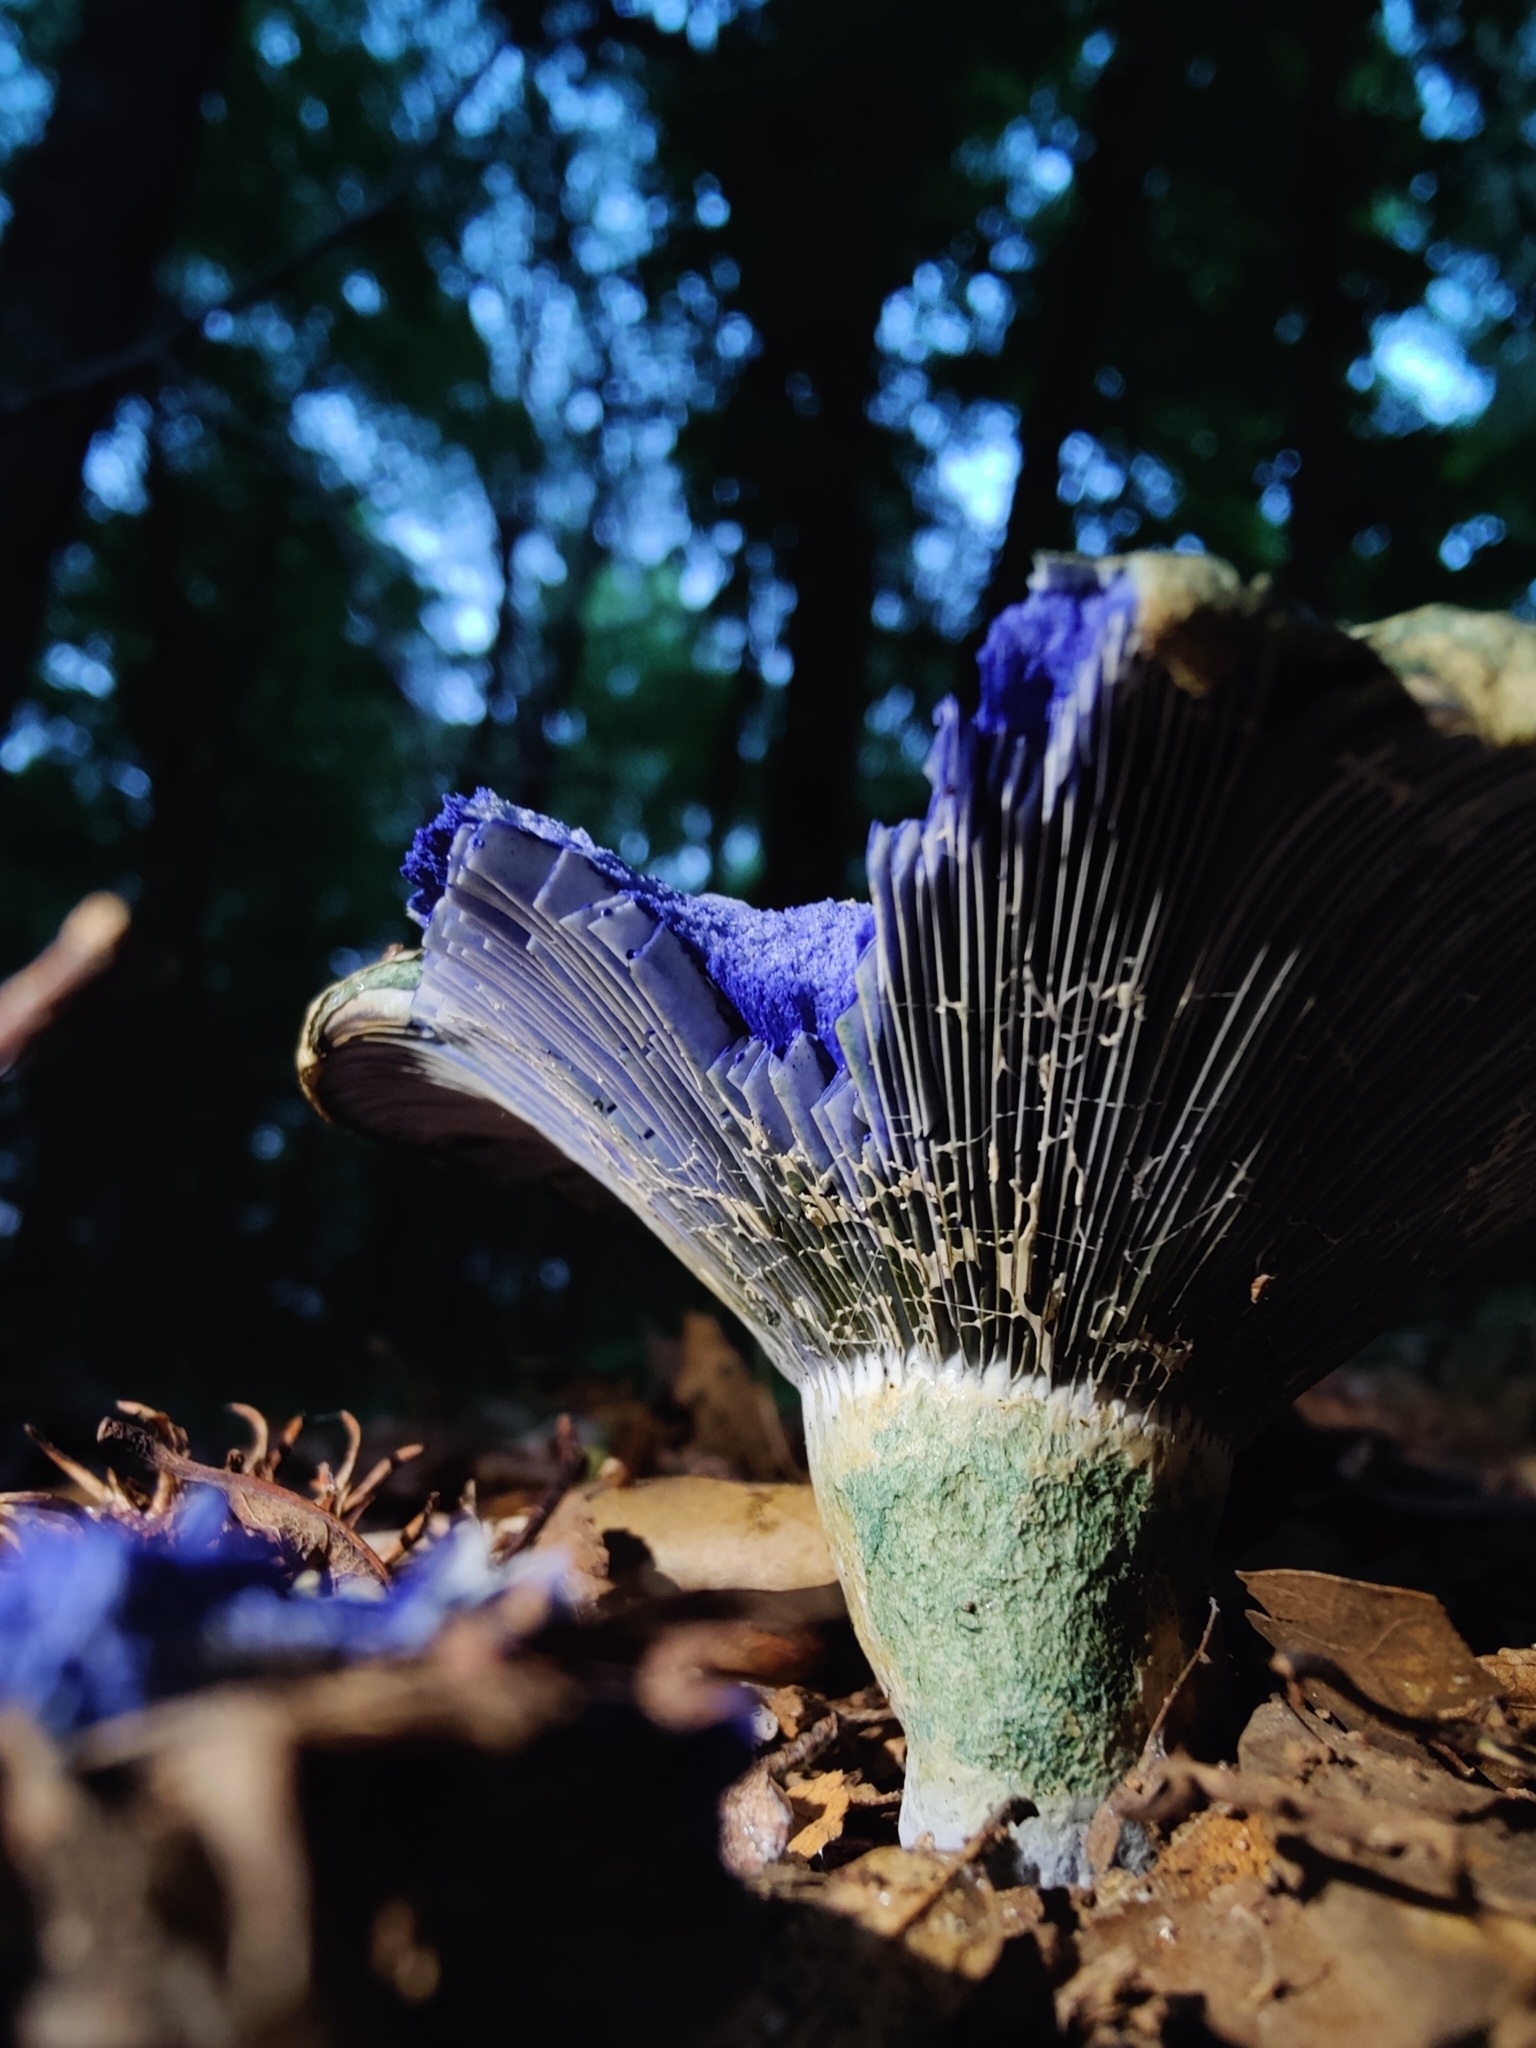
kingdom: Fungi
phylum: Basidiomycota
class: Agaricomycetes
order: Russulales
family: Russulaceae
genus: Lactarius
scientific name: Lactarius indigo
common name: Indigo milk cap
